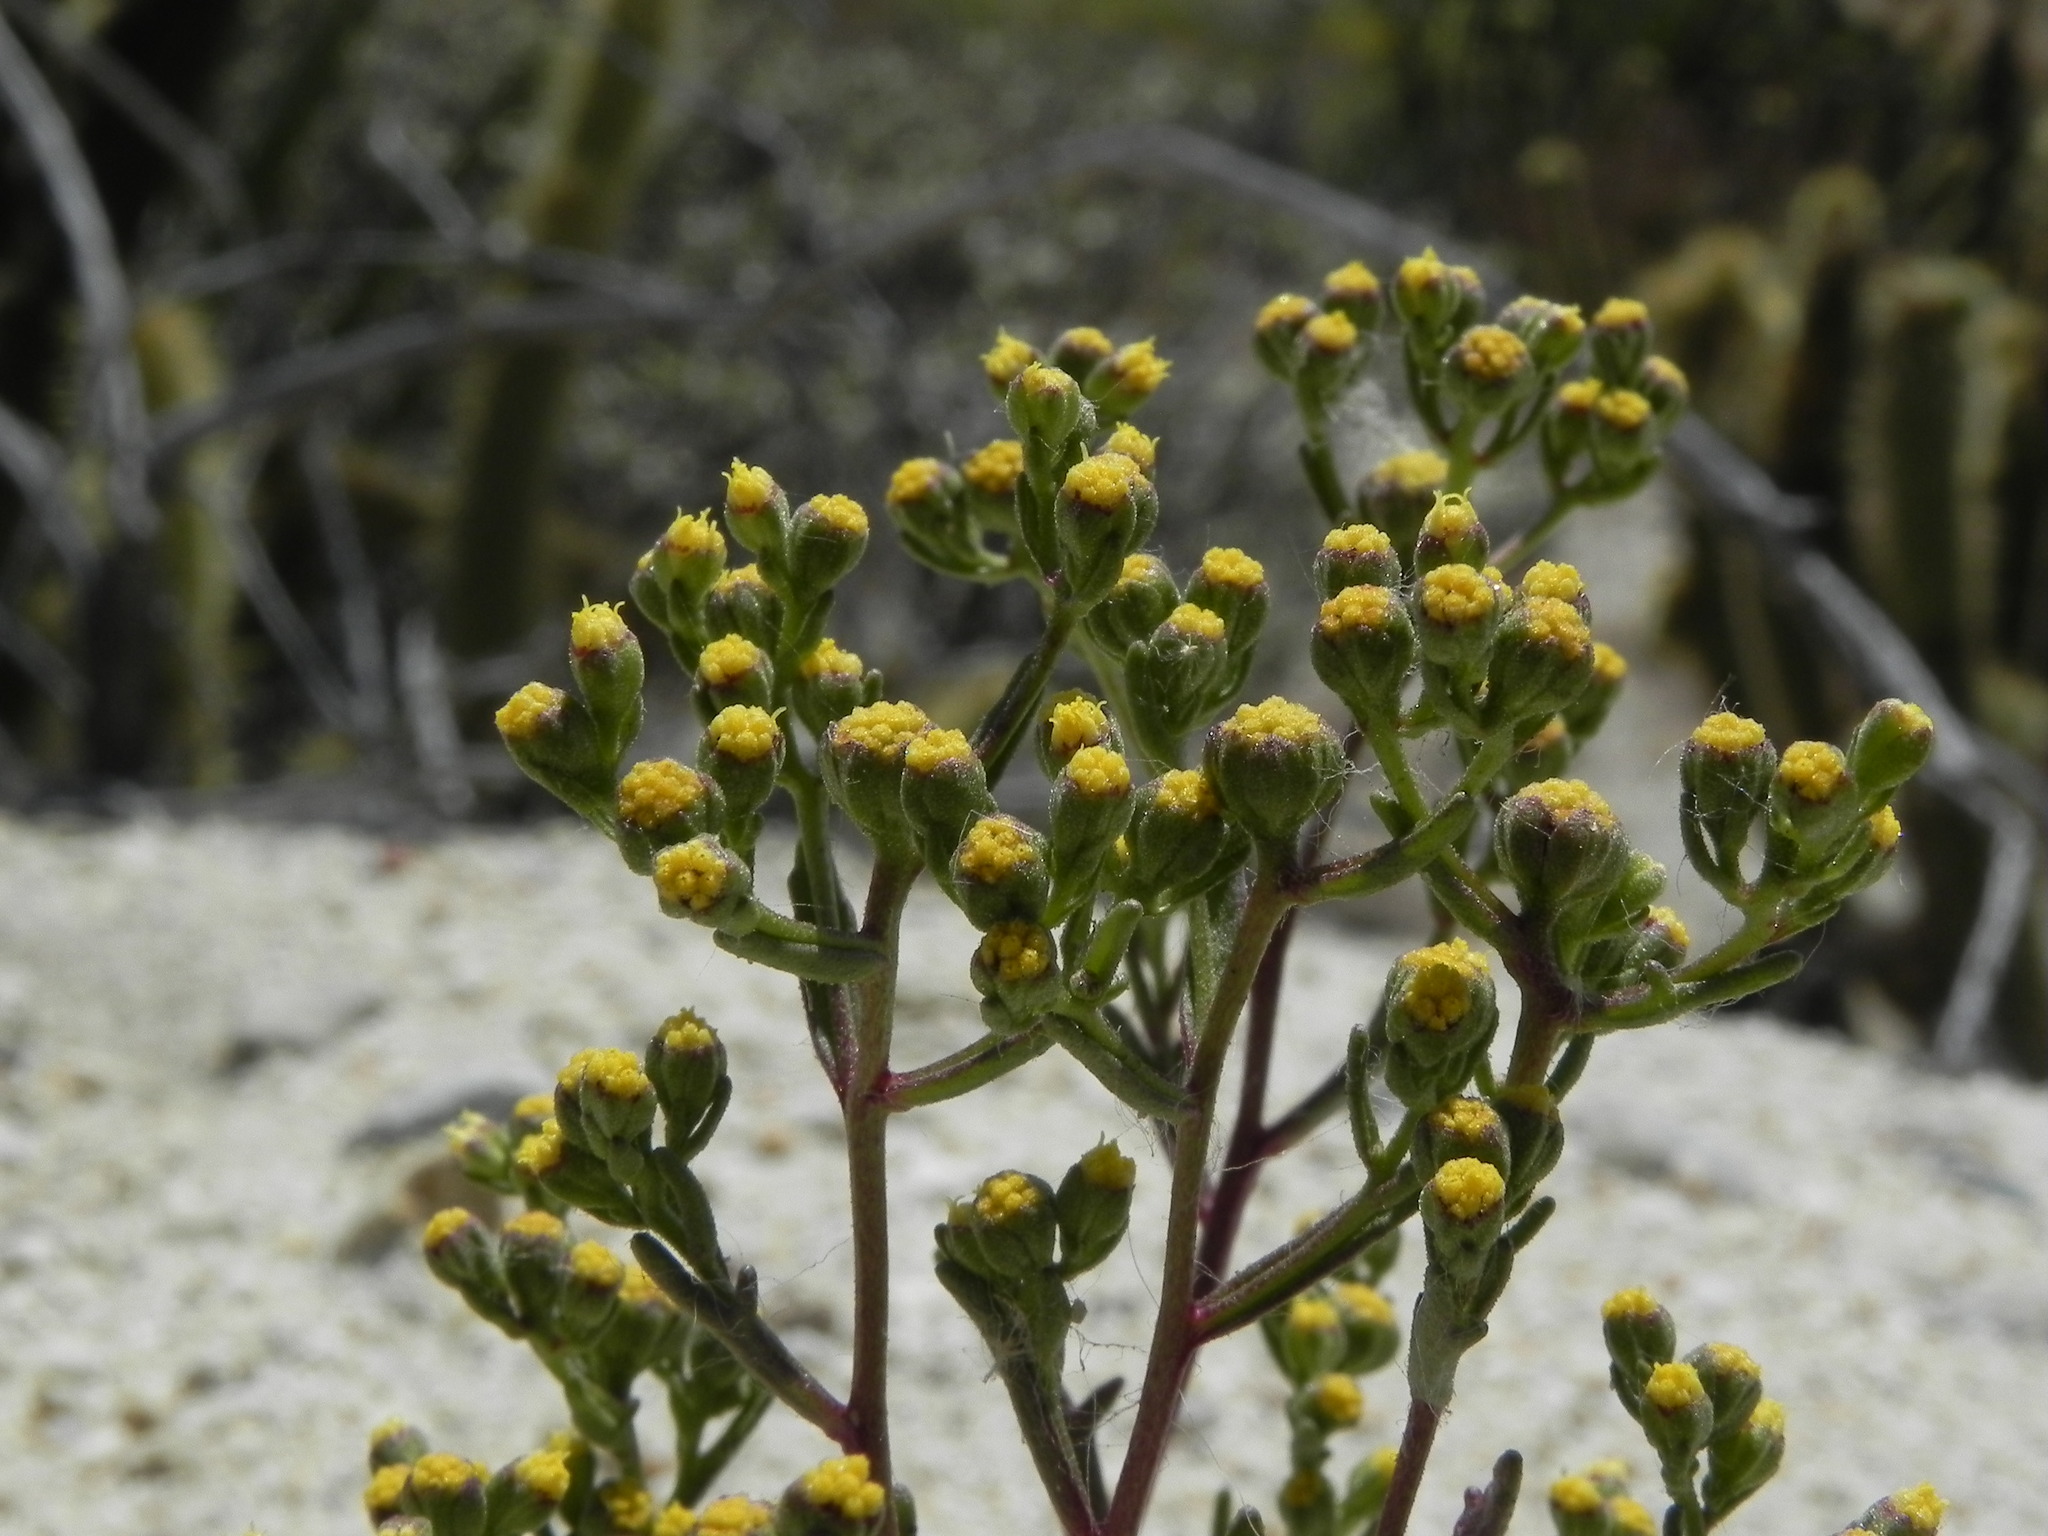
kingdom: Plantae
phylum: Tracheophyta
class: Magnoliopsida
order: Asterales
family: Asteraceae
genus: Amblyopappus
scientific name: Amblyopappus pusillus
